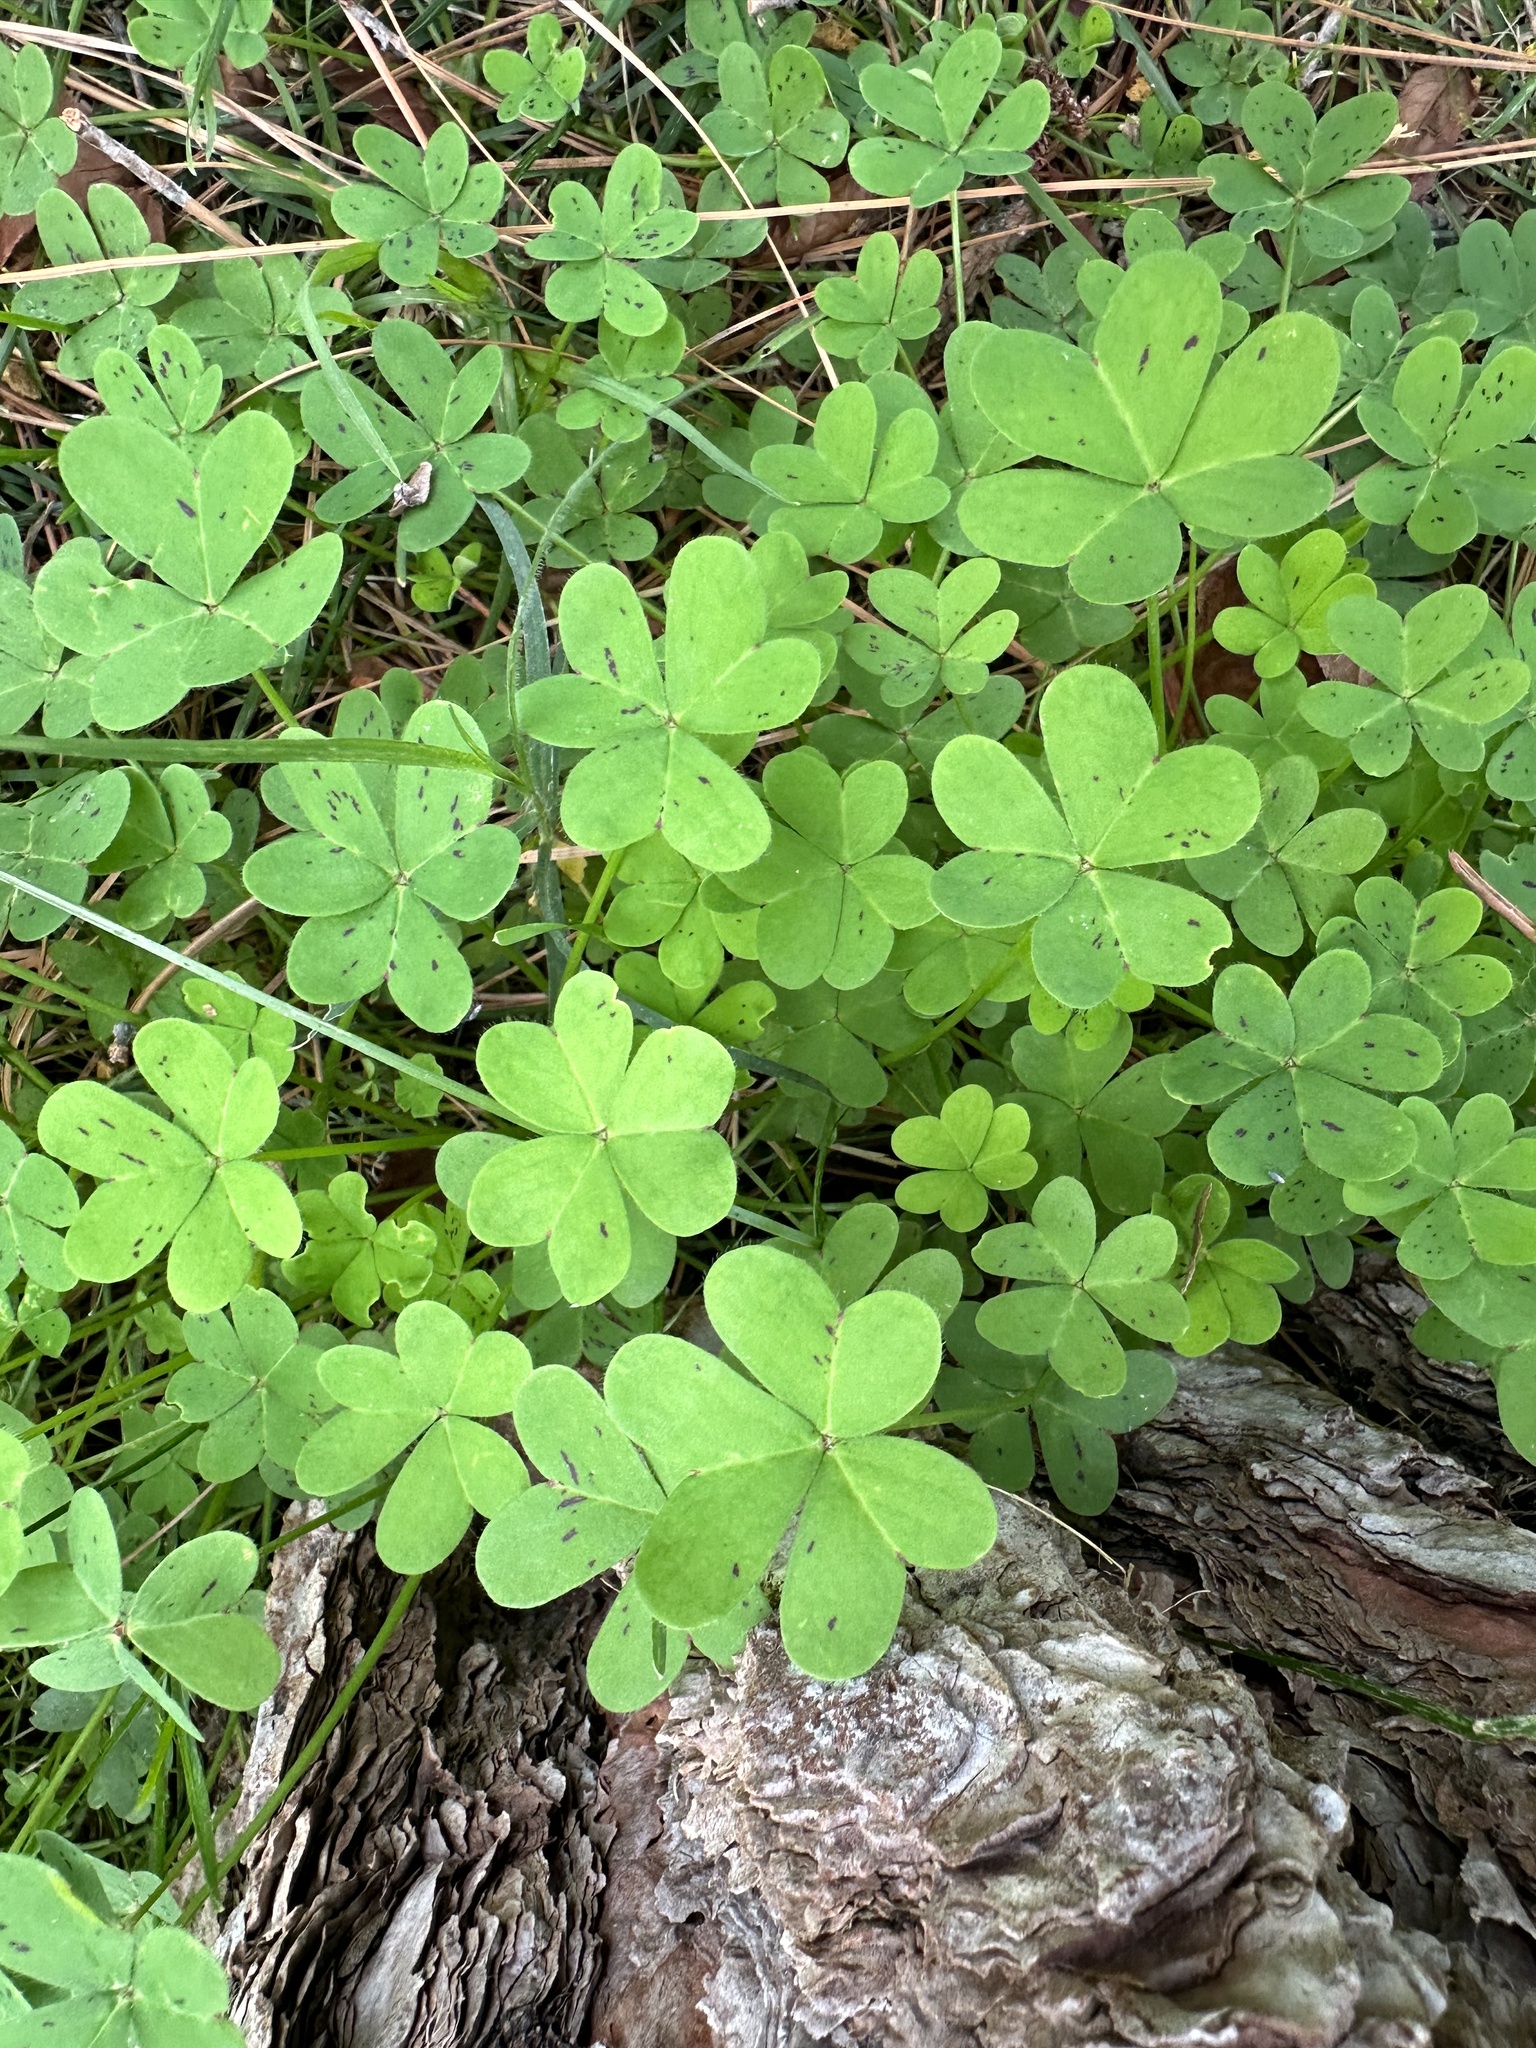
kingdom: Plantae
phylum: Tracheophyta
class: Magnoliopsida
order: Oxalidales
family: Oxalidaceae
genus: Oxalis
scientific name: Oxalis pes-caprae
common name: Bermuda-buttercup
